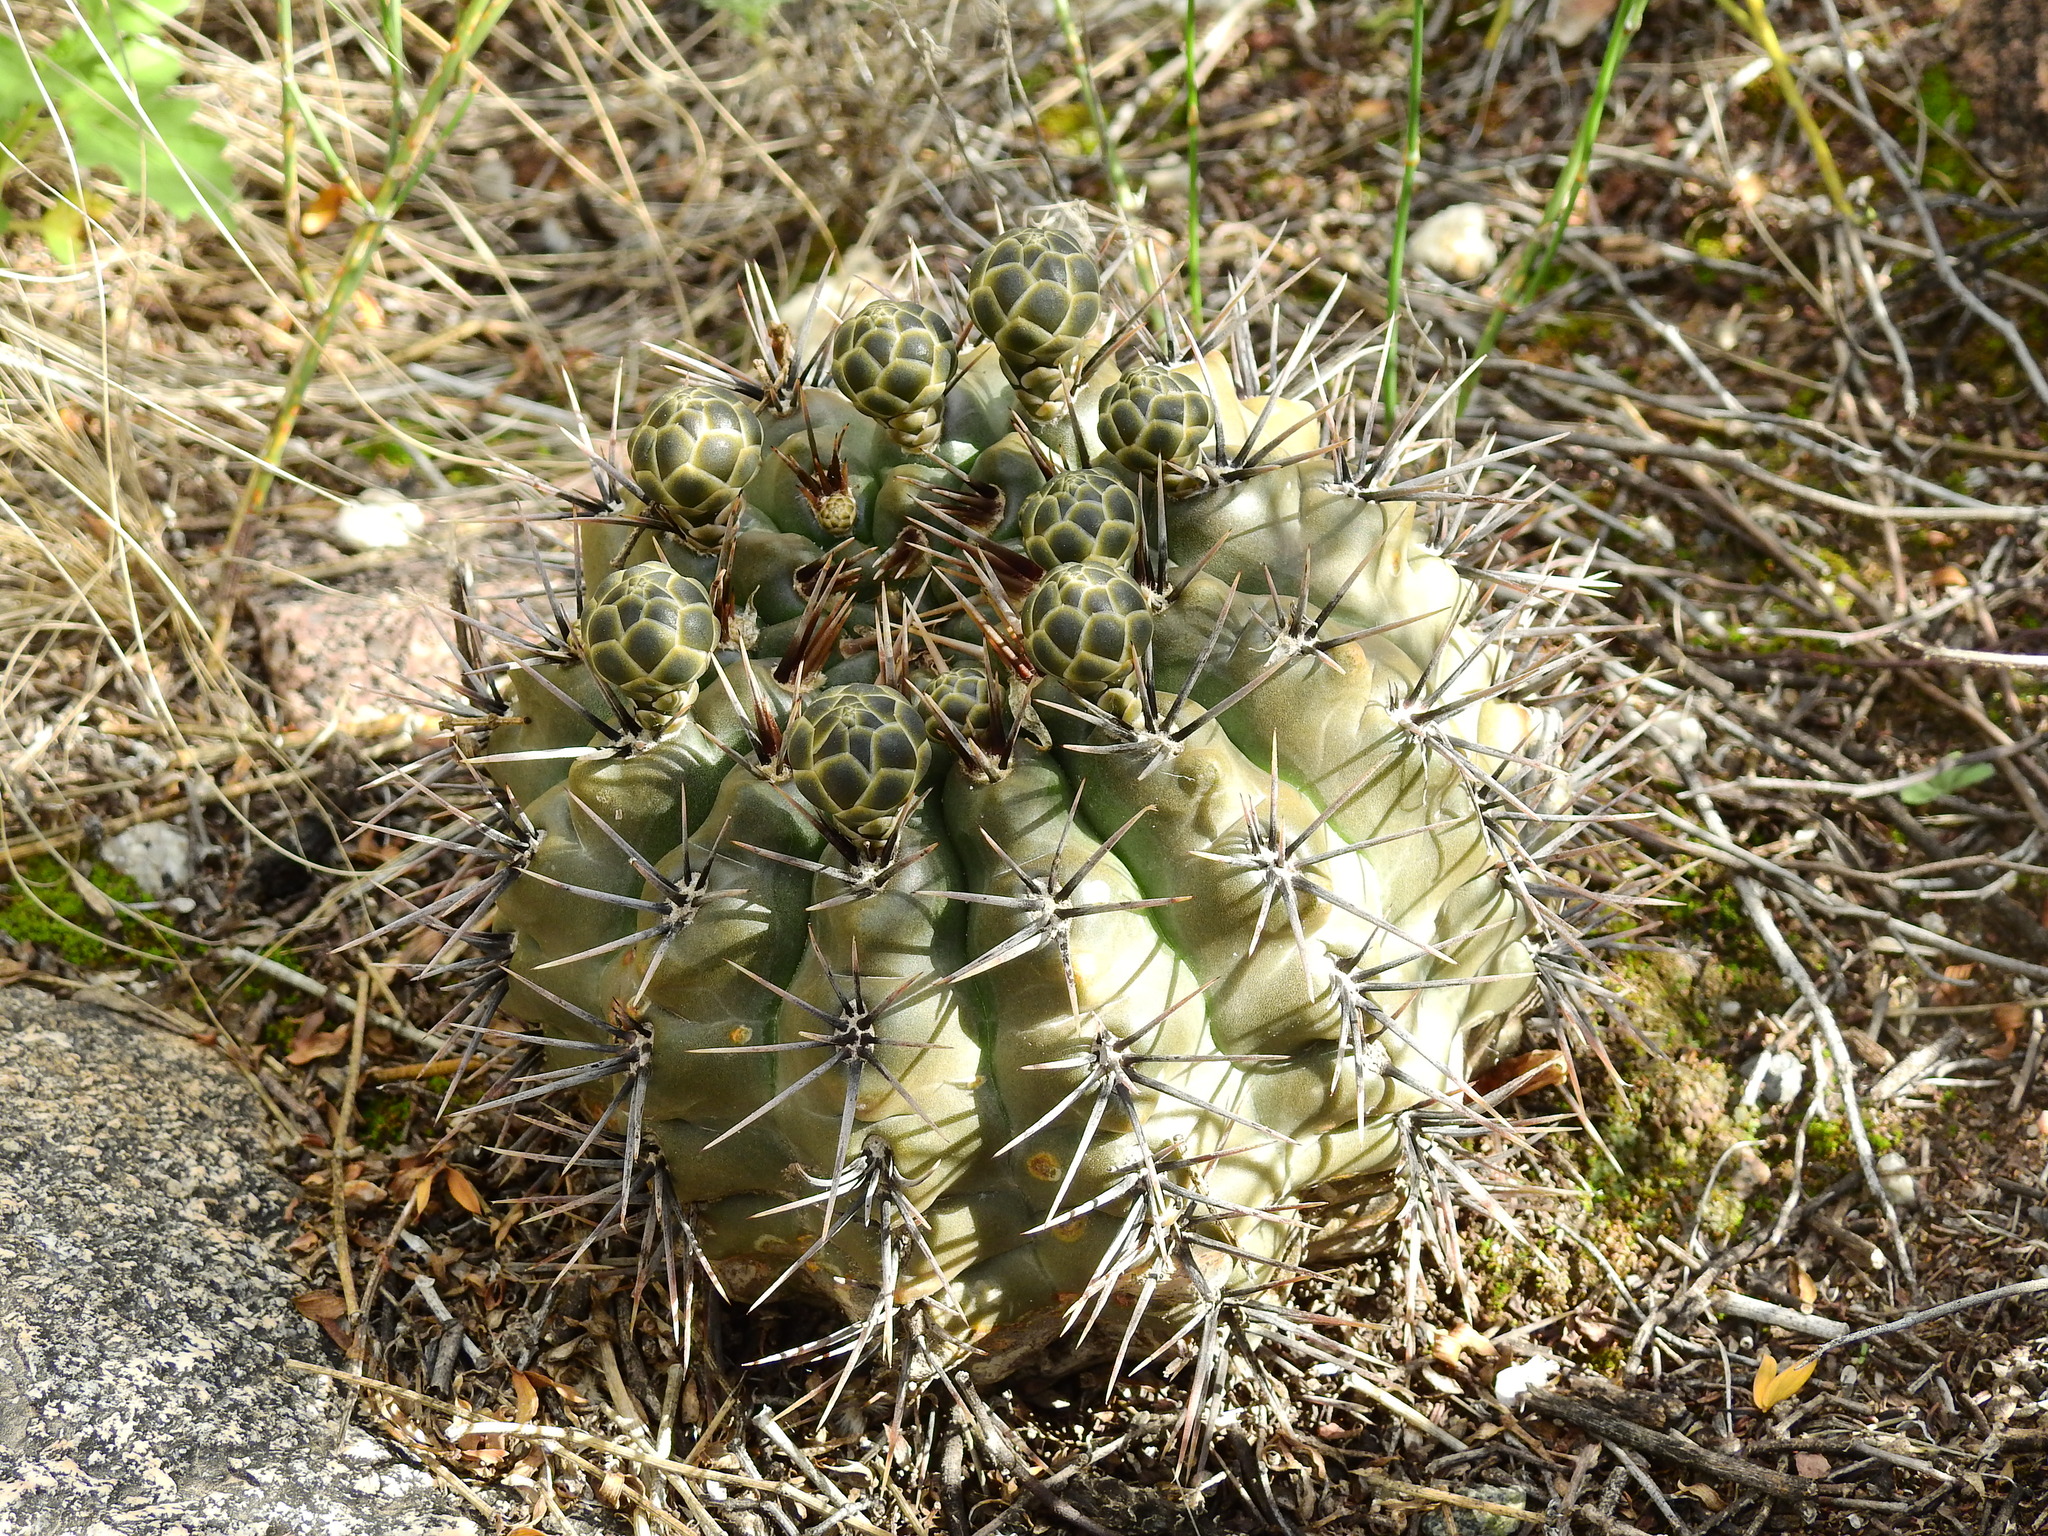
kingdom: Plantae
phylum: Tracheophyta
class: Magnoliopsida
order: Caryophyllales
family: Cactaceae
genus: Gymnocalycium
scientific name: Gymnocalycium striglianum
